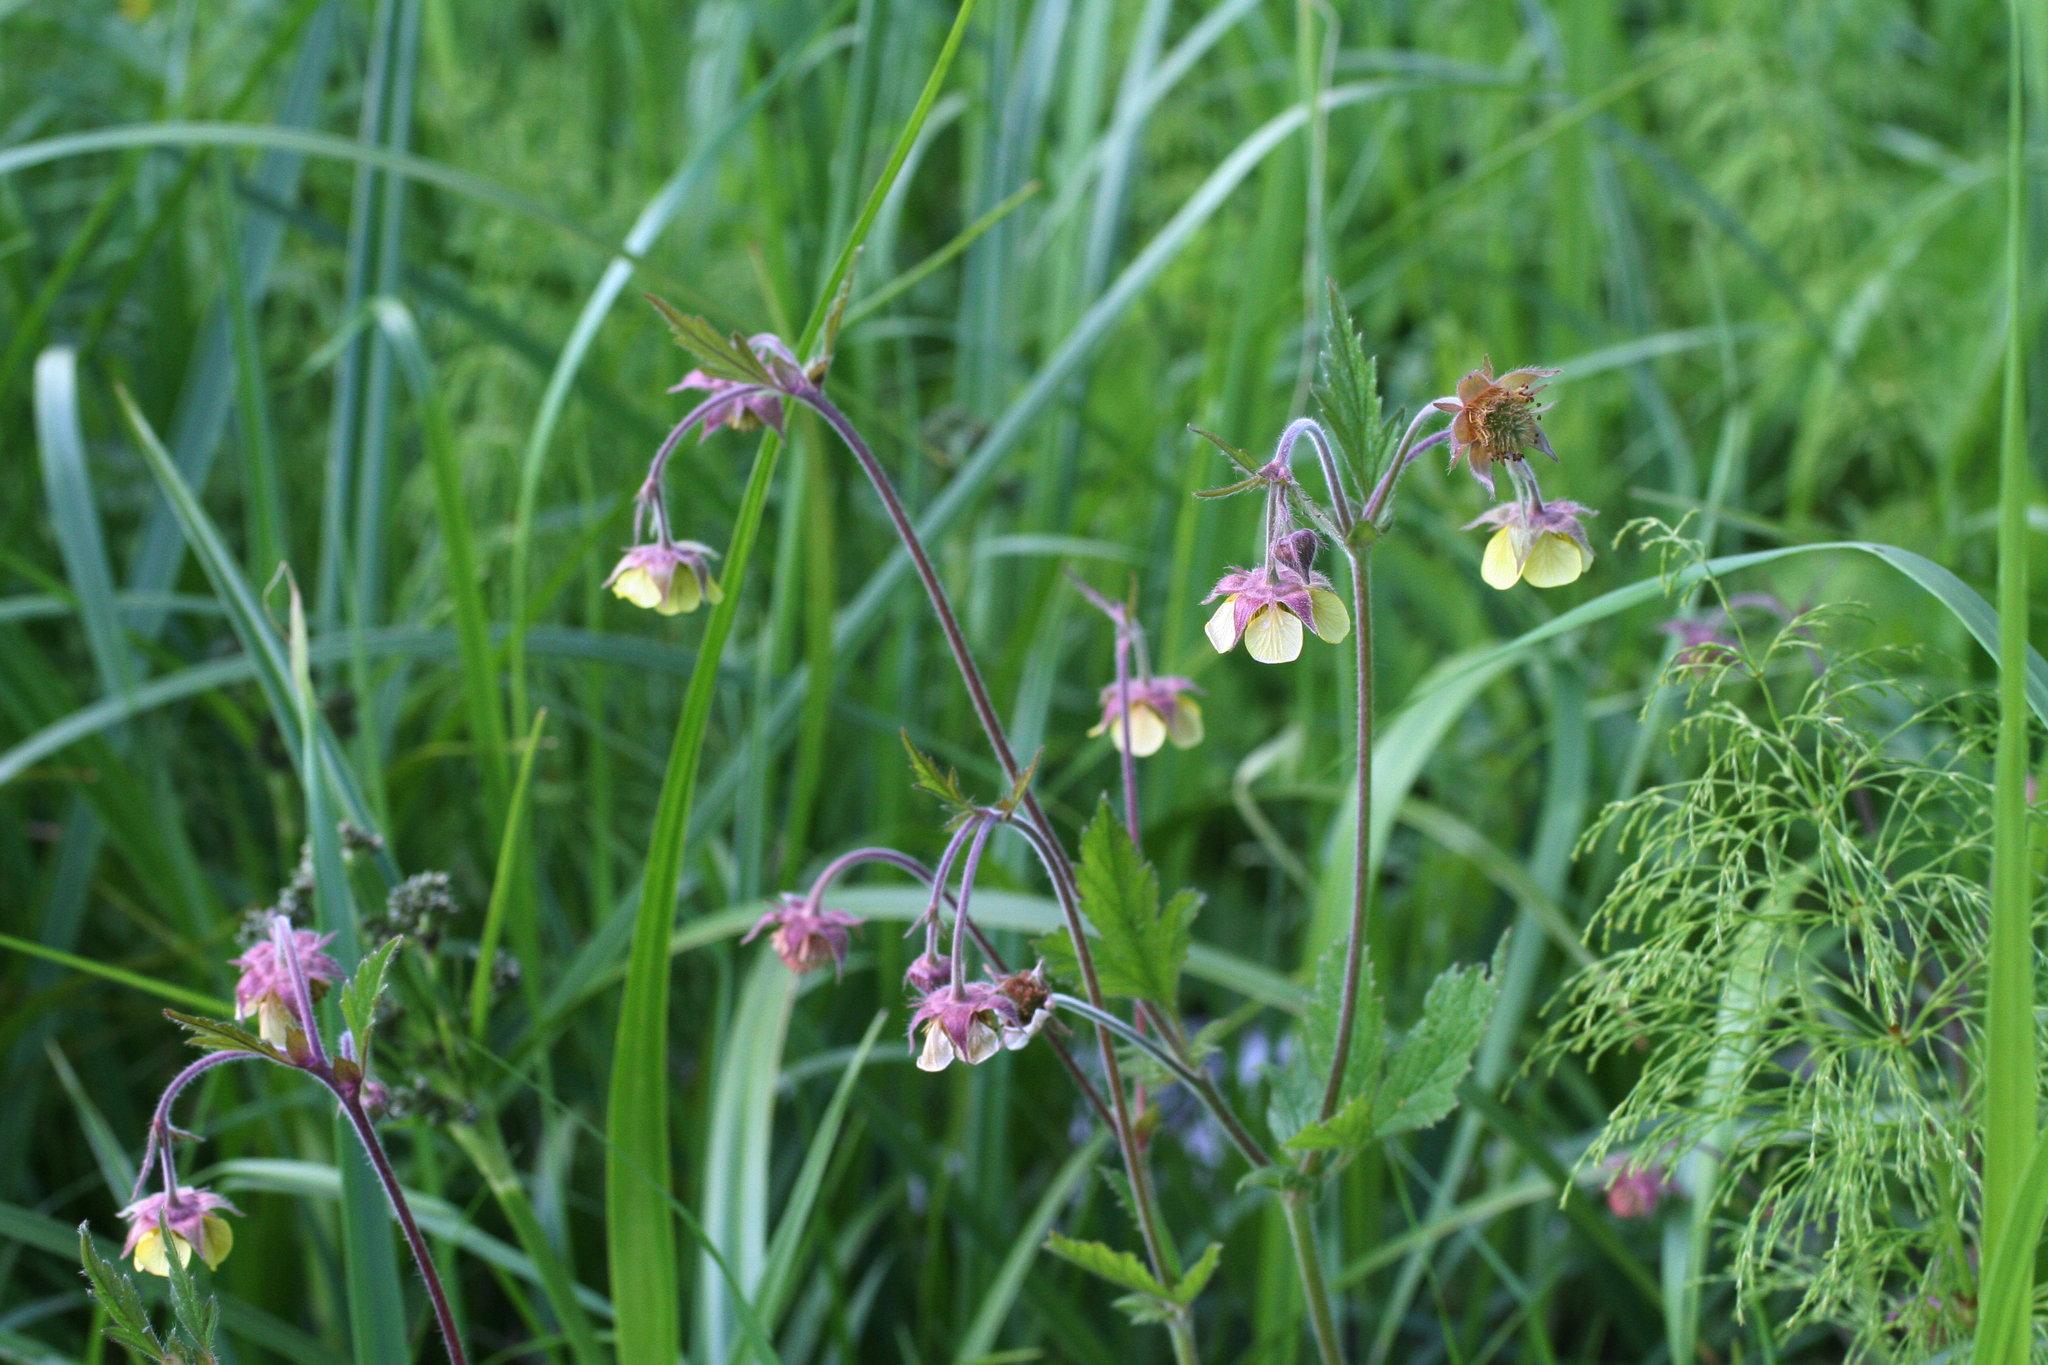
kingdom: Plantae
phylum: Tracheophyta
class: Magnoliopsida
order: Rosales
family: Rosaceae
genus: Geum
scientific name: Geum rivale
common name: Water avens
